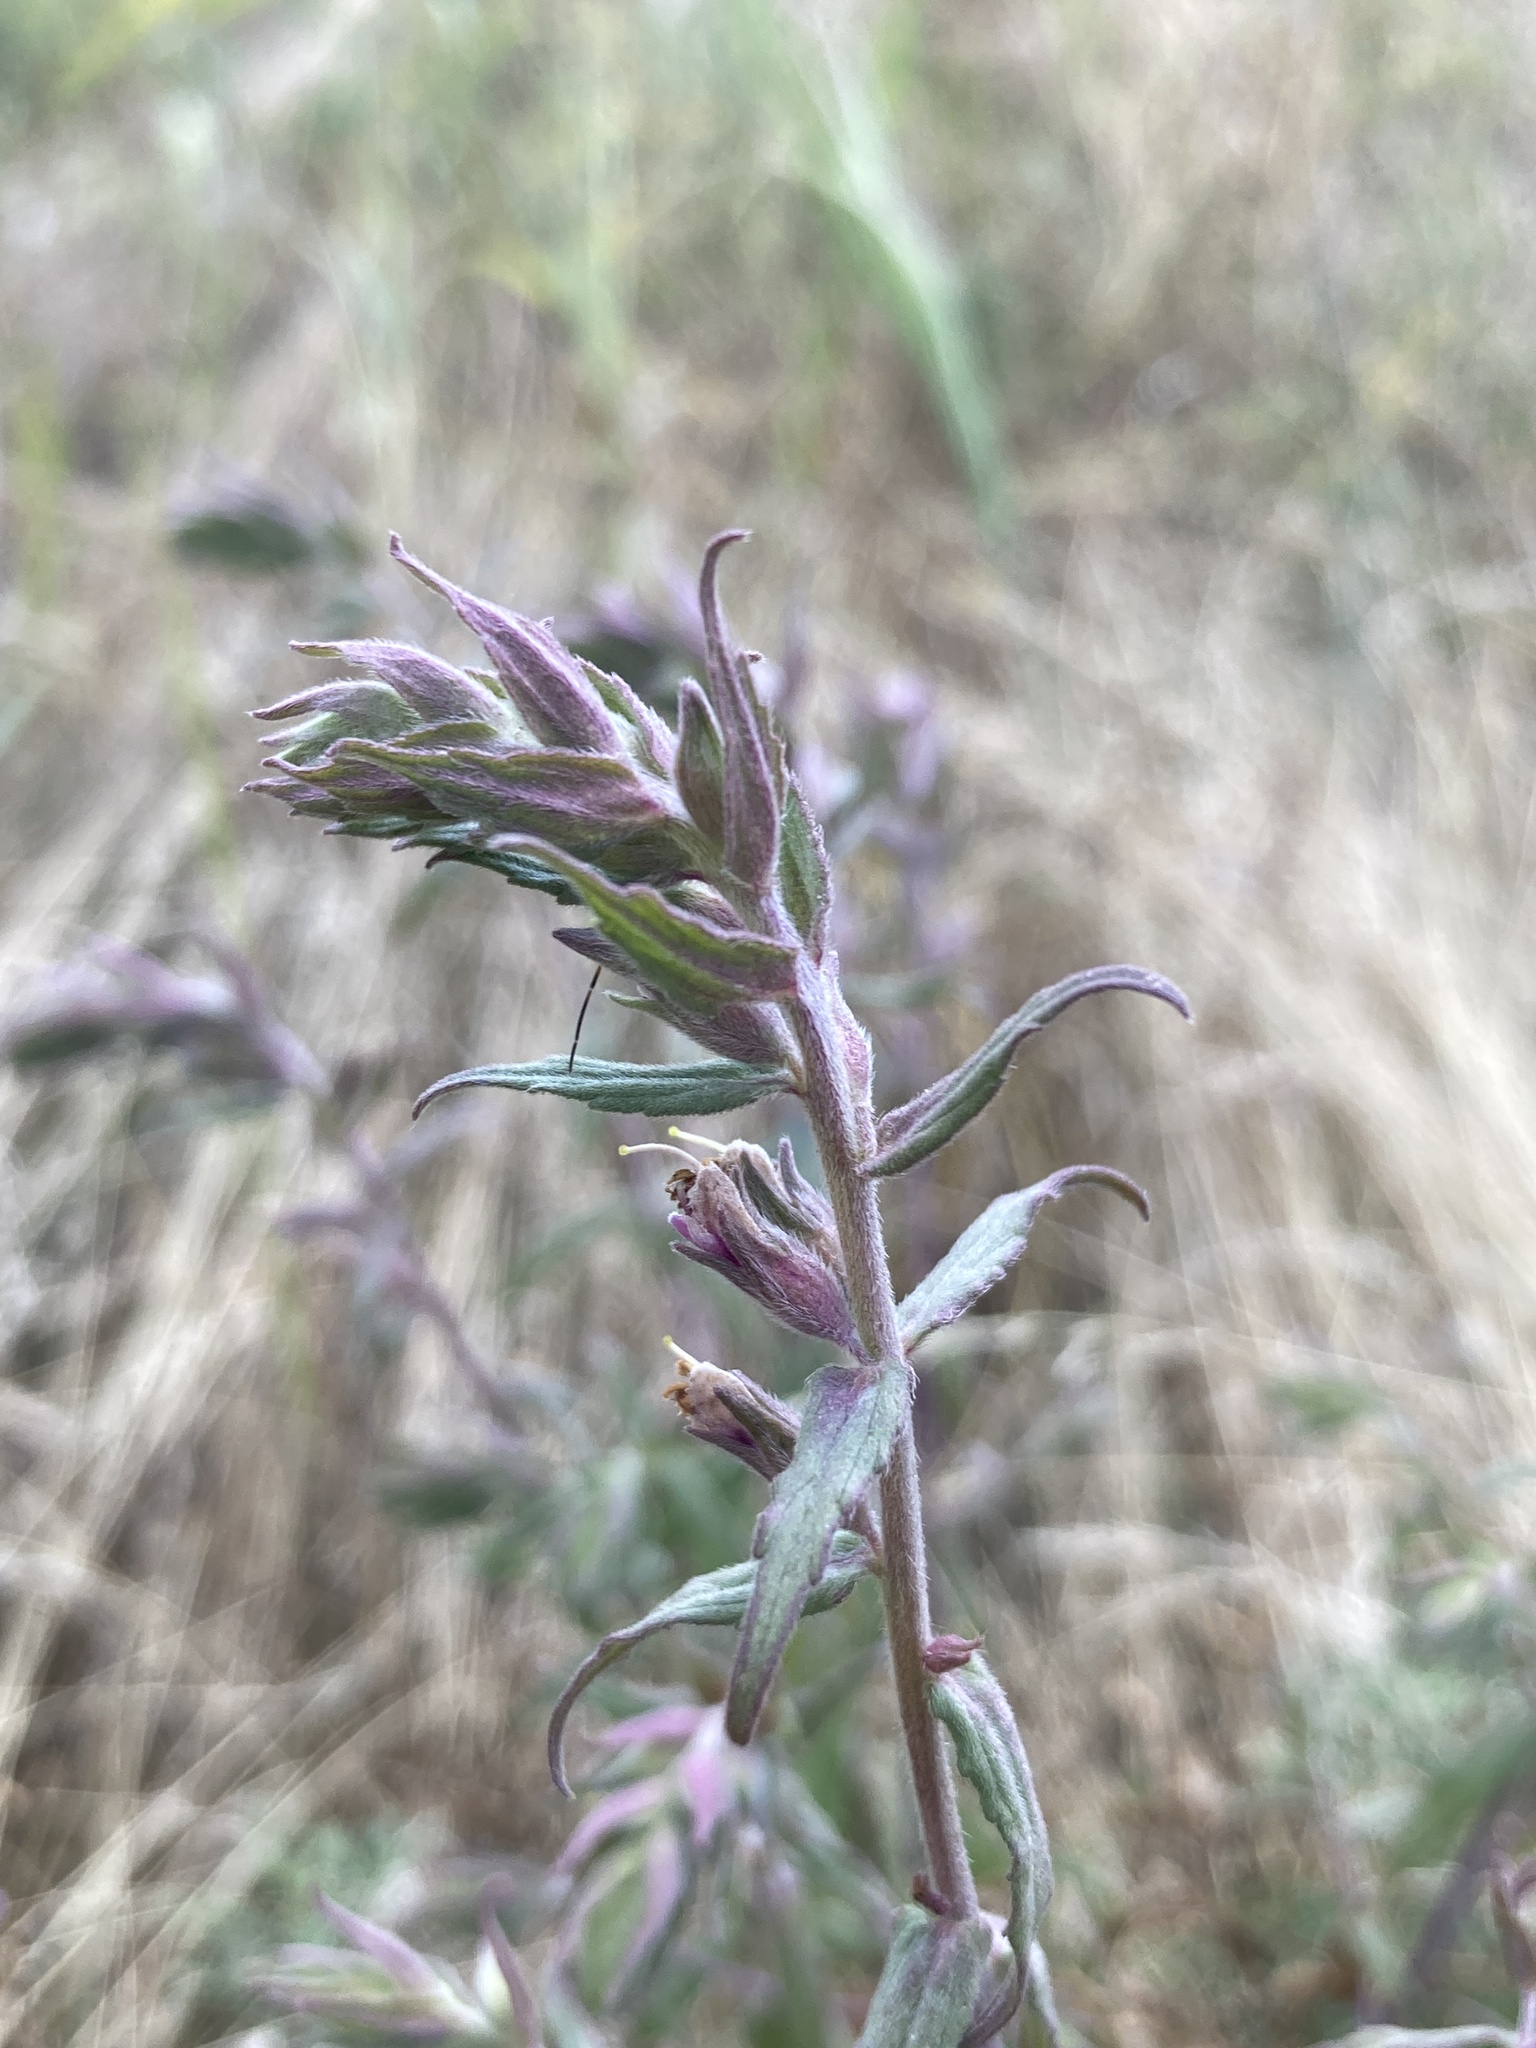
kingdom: Plantae
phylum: Tracheophyta
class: Magnoliopsida
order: Lamiales
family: Orobanchaceae
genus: Odontites
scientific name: Odontites vulgaris
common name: Broomrape
